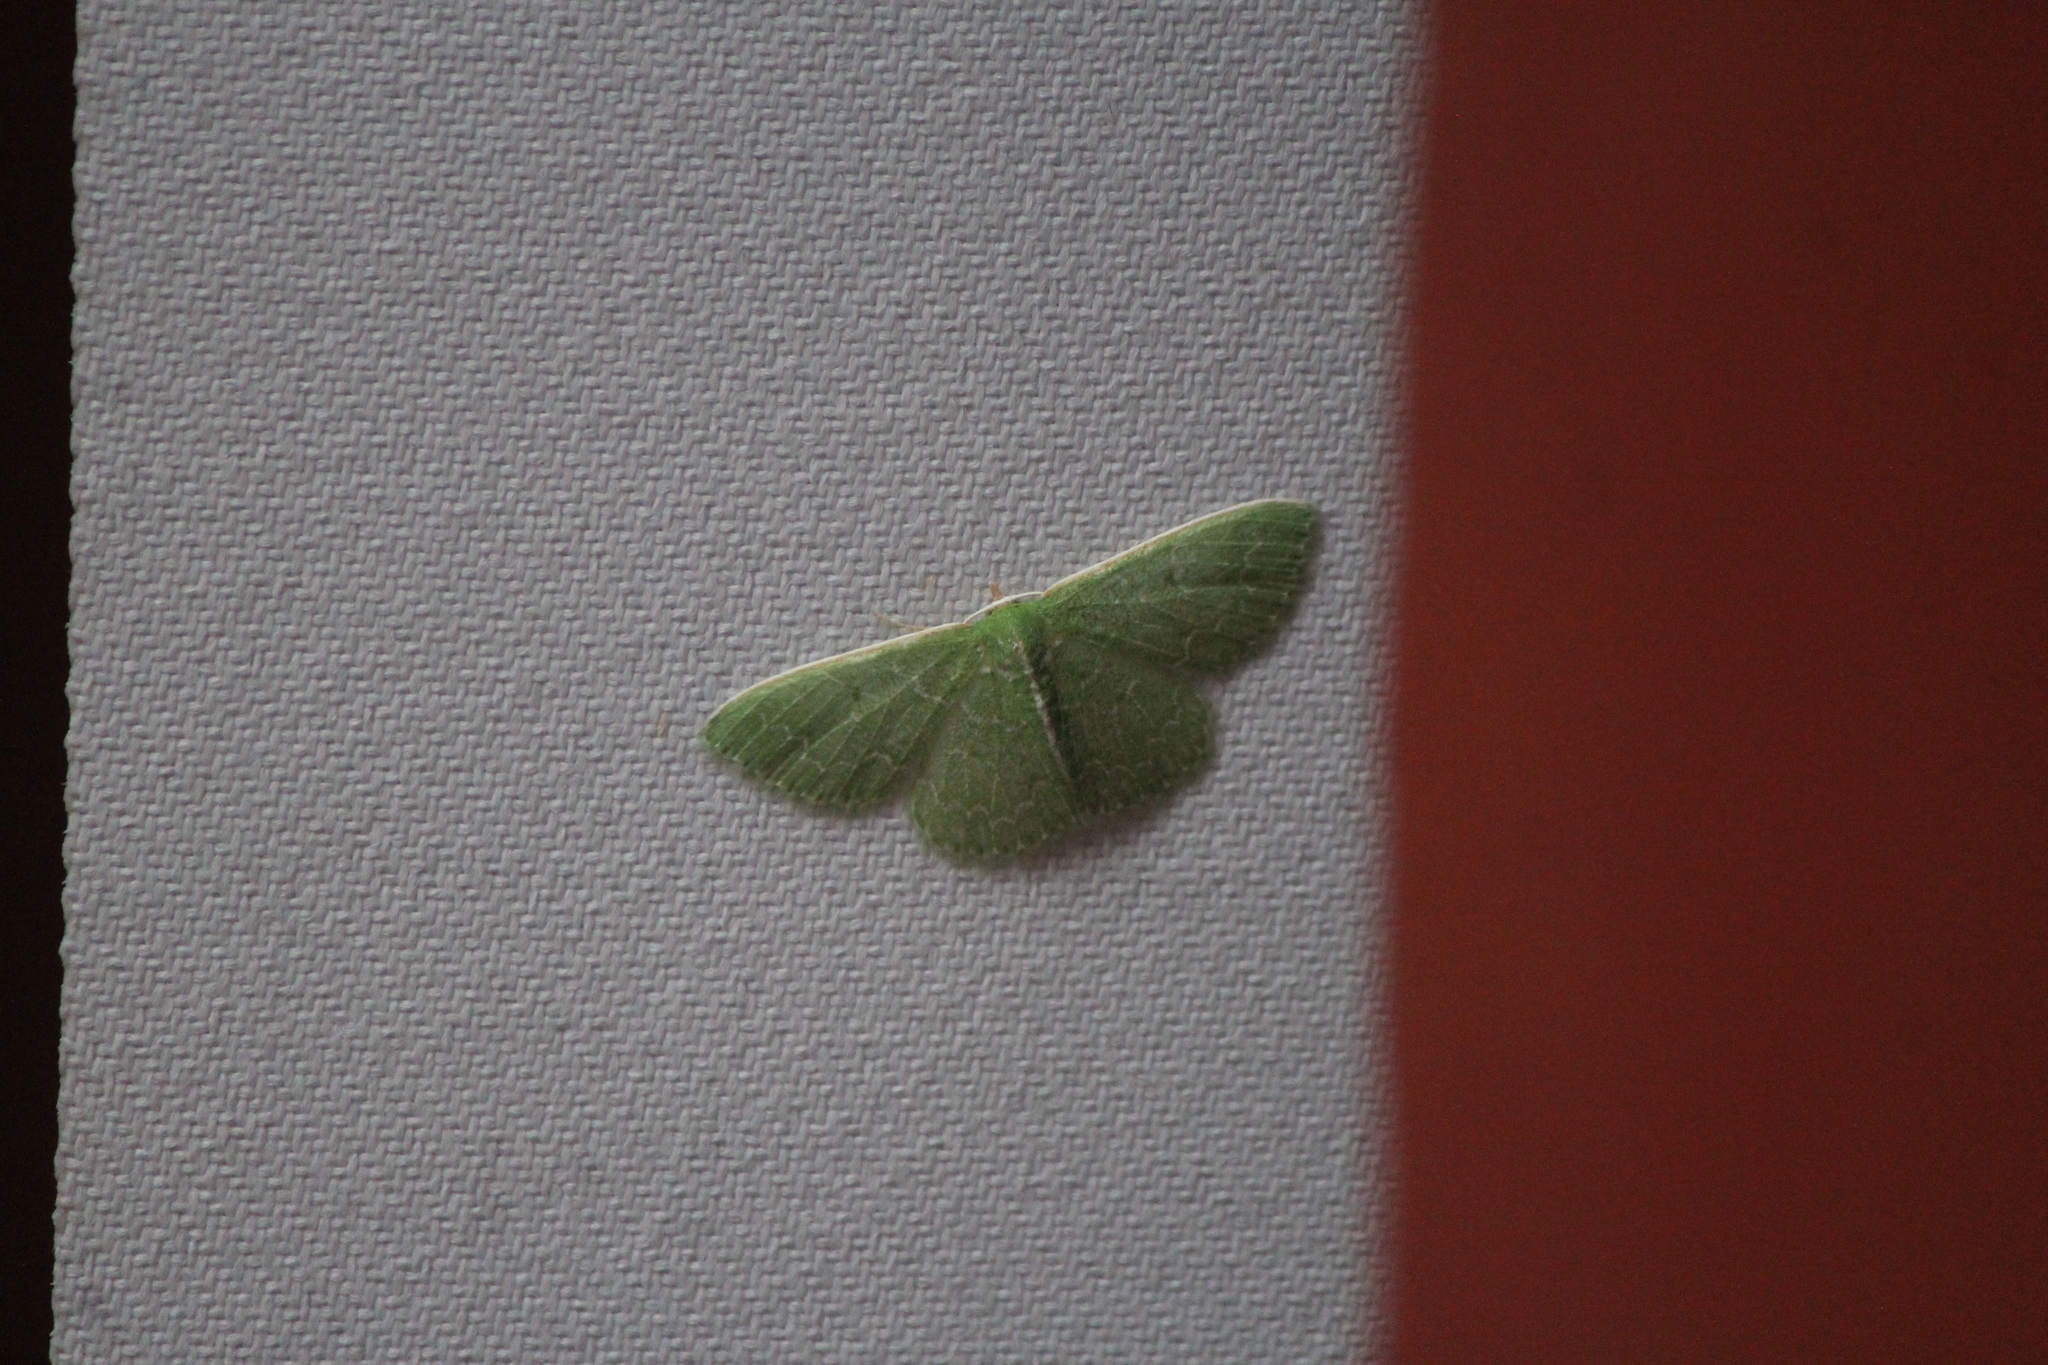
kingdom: Animalia
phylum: Arthropoda
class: Insecta
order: Lepidoptera
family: Geometridae
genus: Synchlora
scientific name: Synchlora frondaria
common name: Southern emerald
